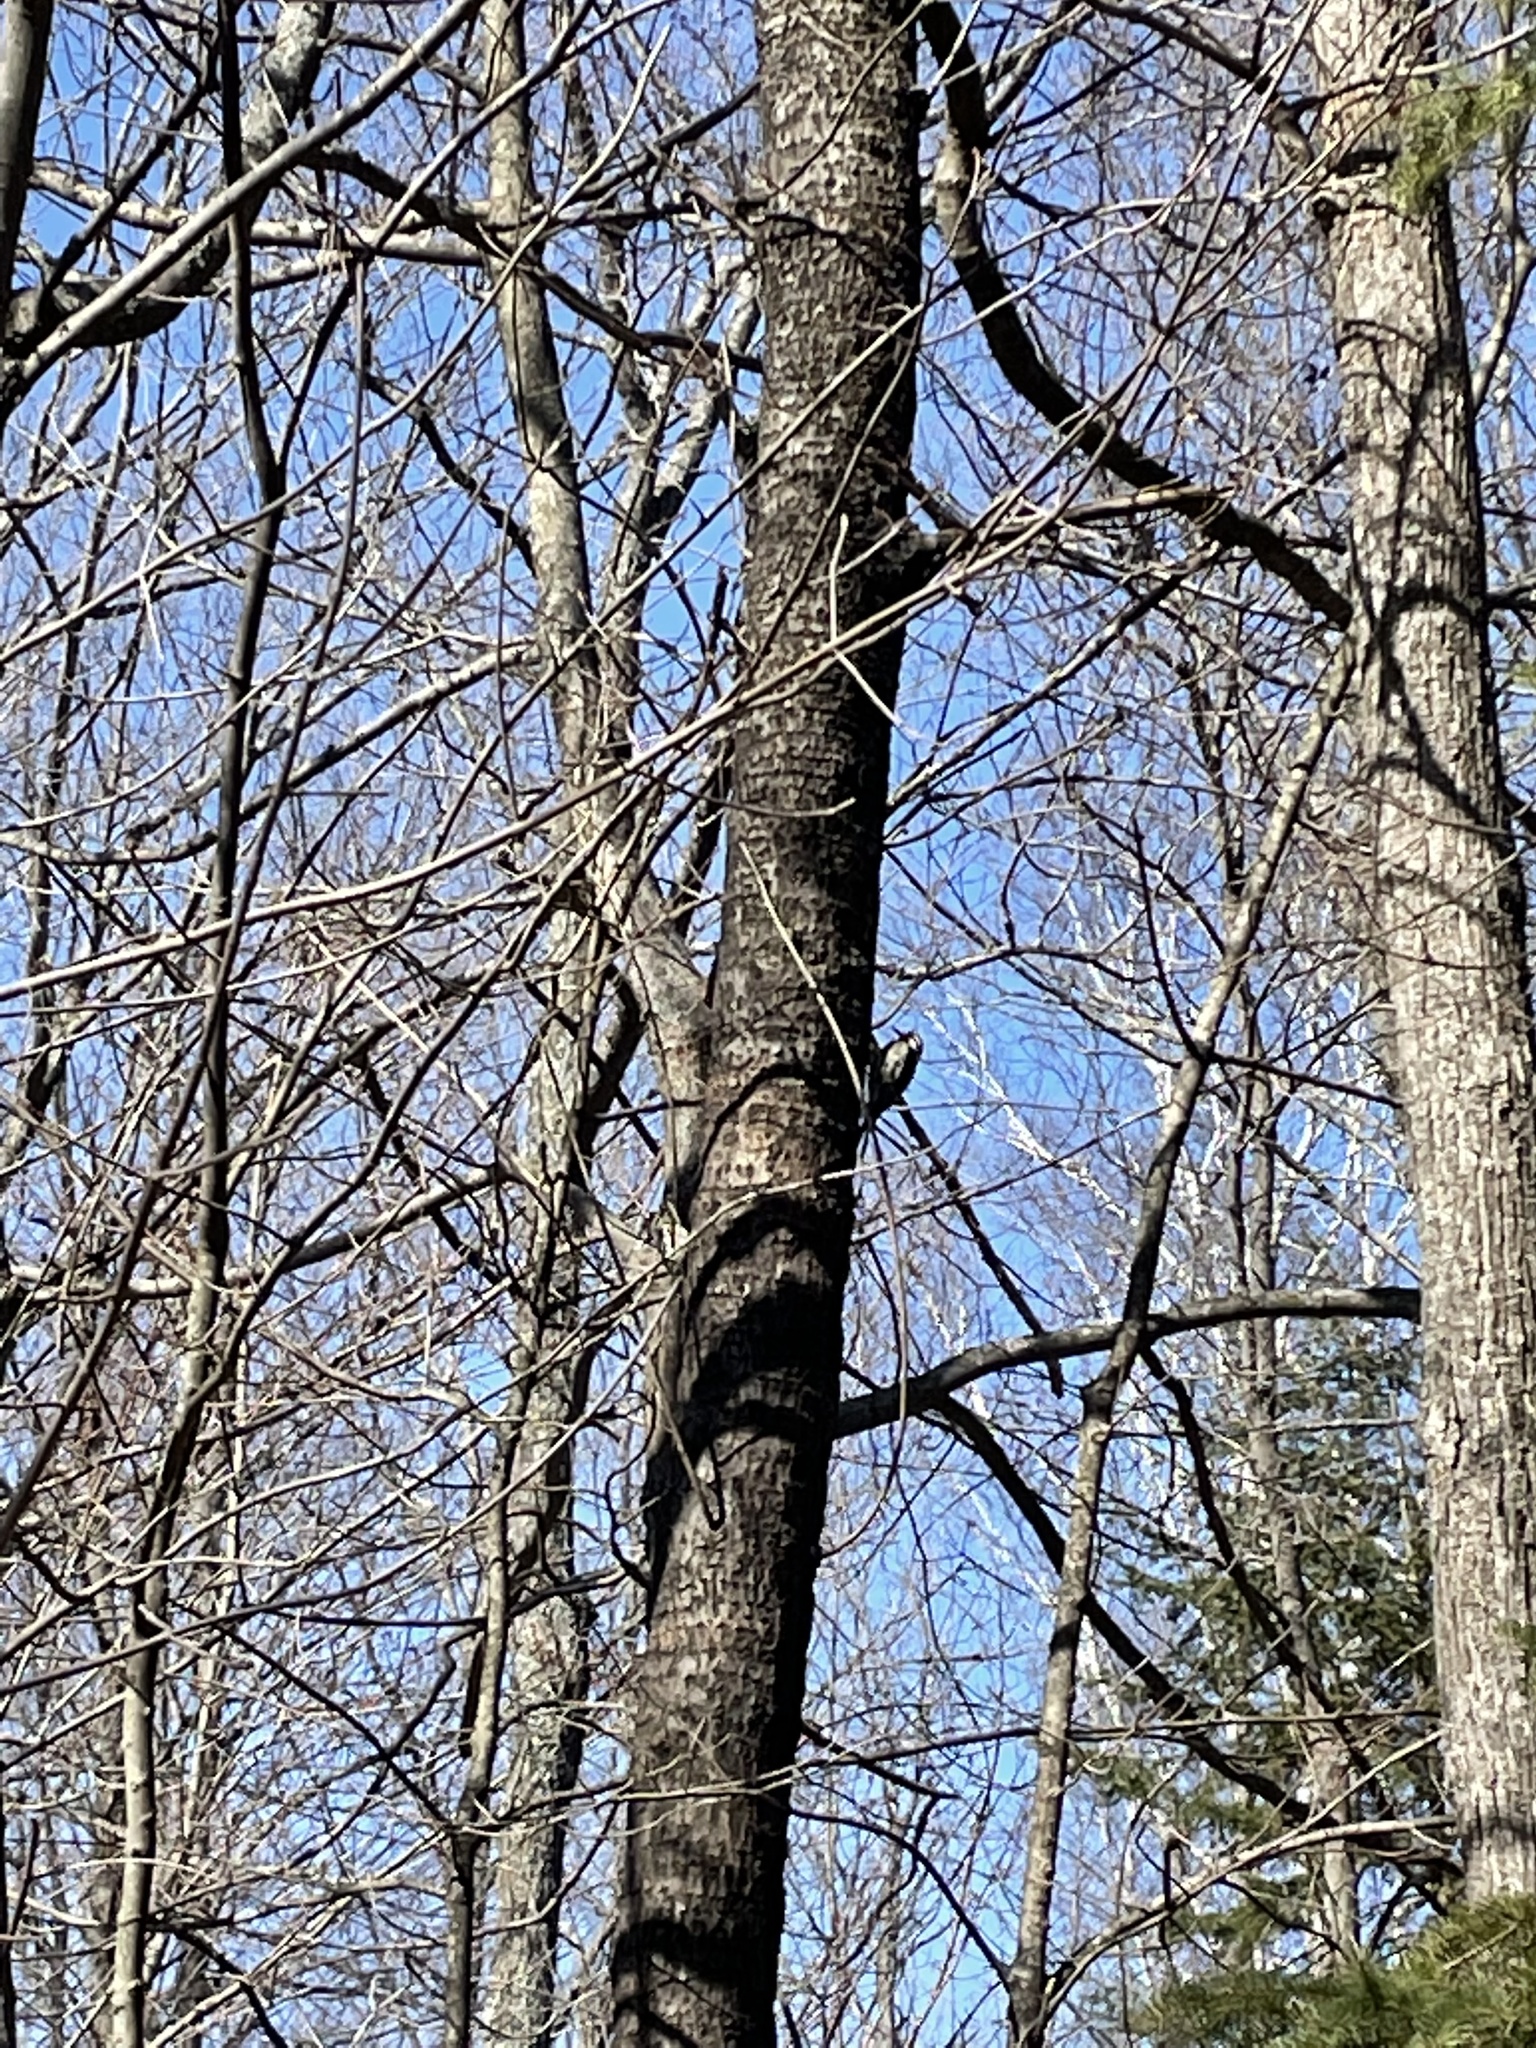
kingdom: Animalia
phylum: Chordata
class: Aves
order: Piciformes
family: Picidae
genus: Sphyrapicus
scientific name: Sphyrapicus varius
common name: Yellow-bellied sapsucker
